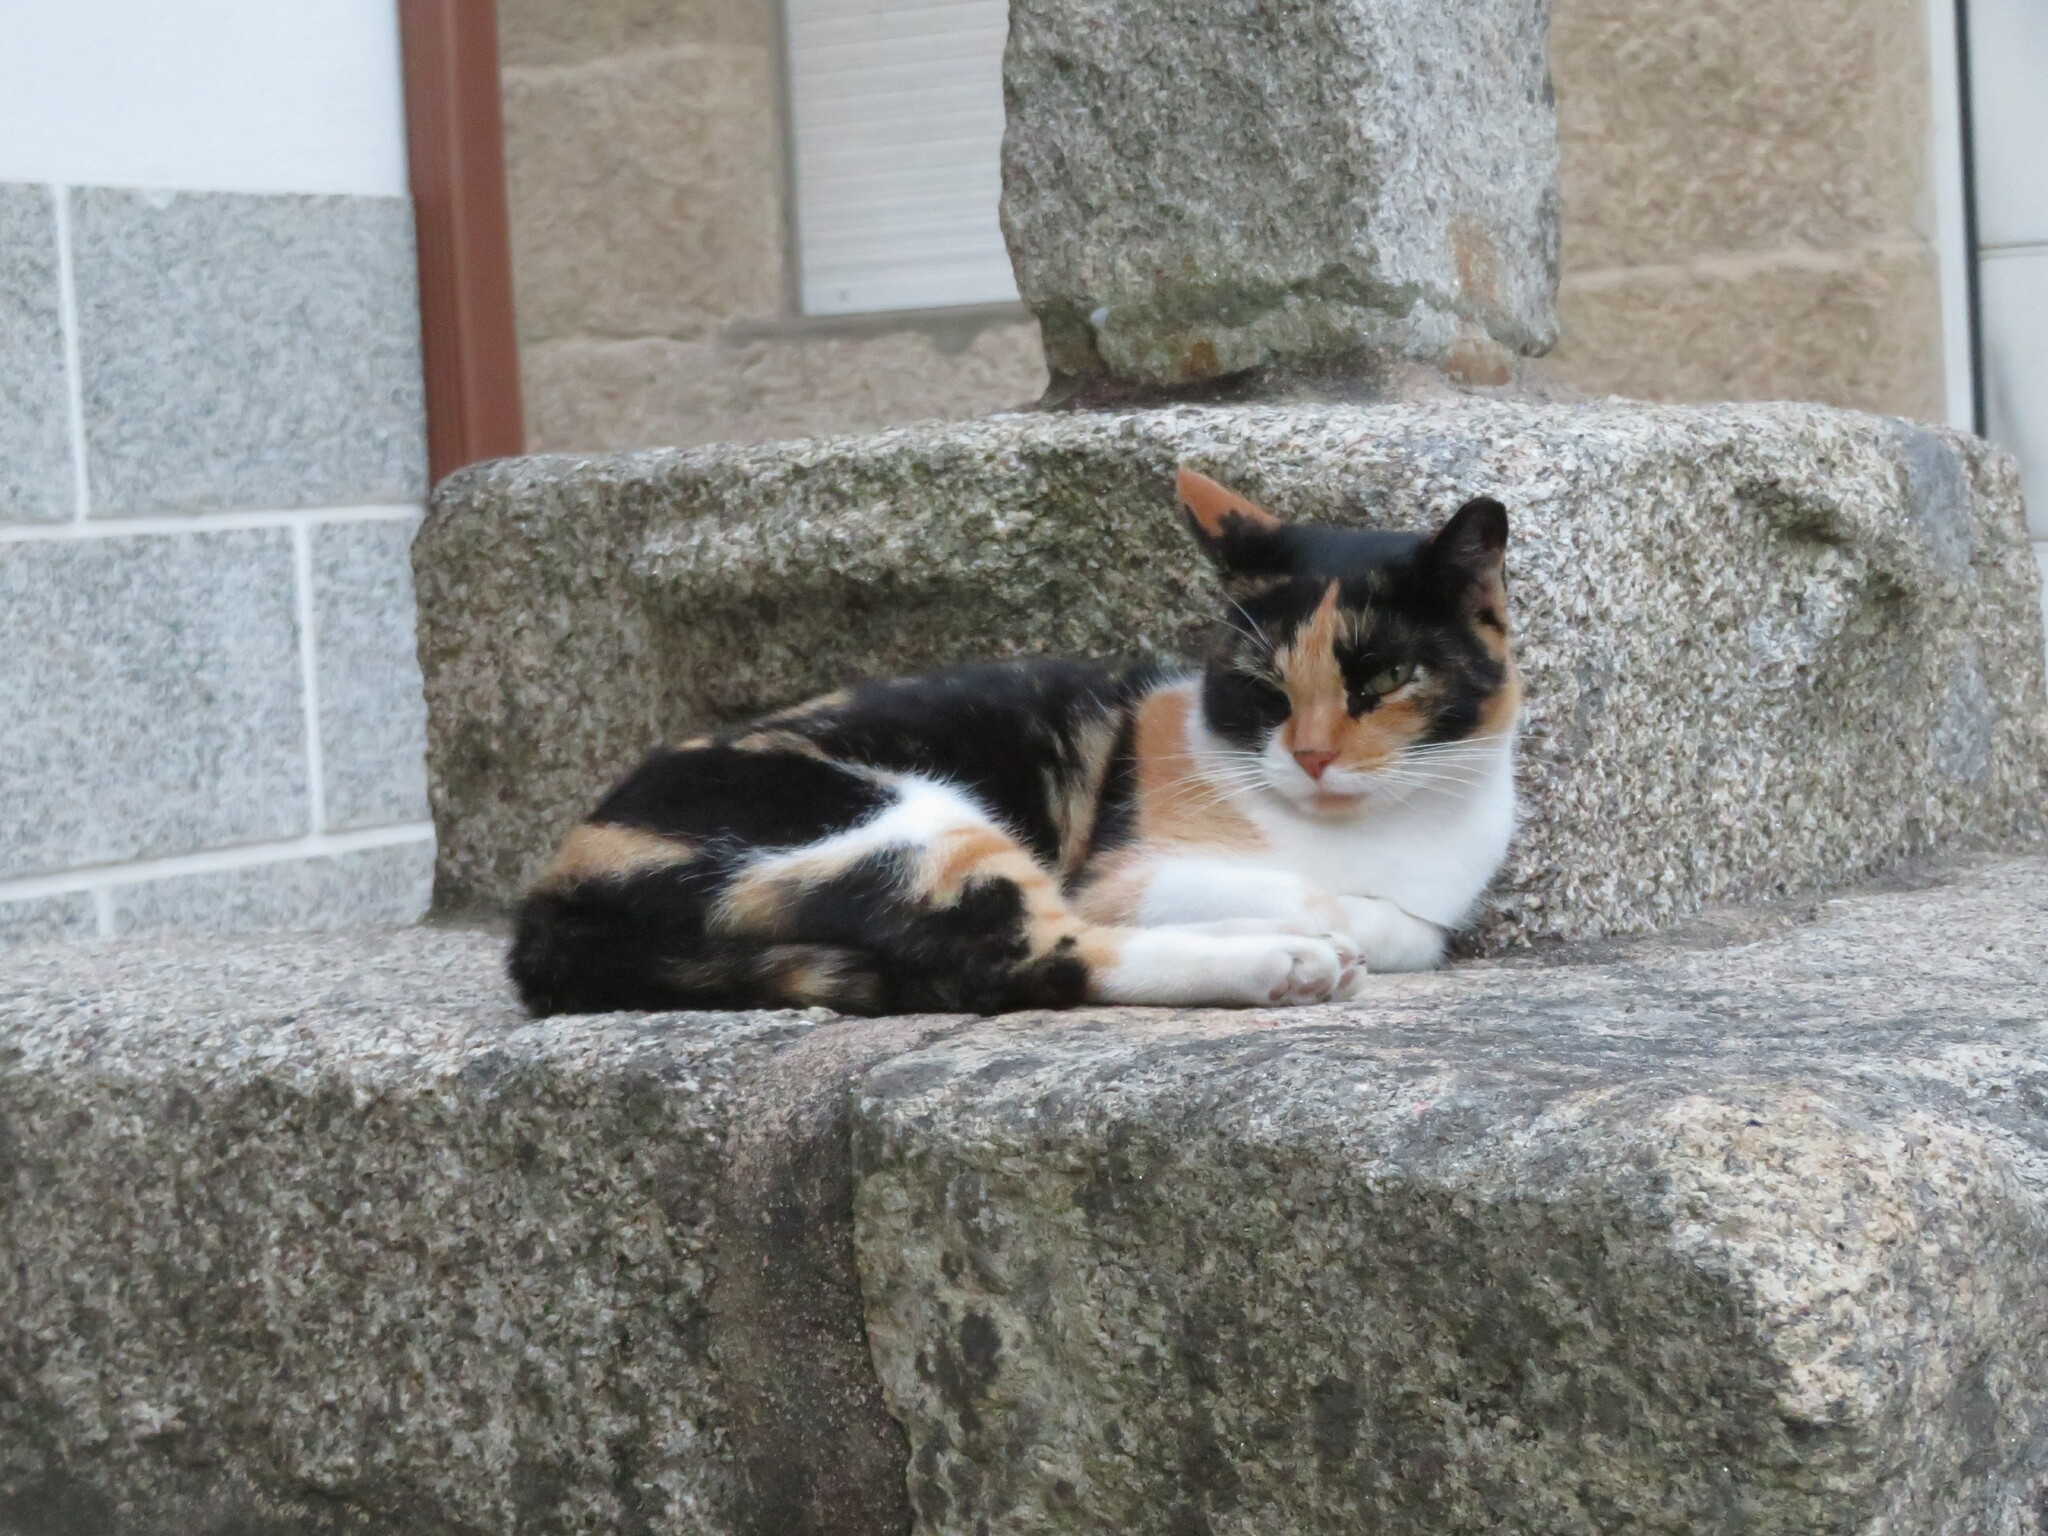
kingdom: Animalia
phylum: Chordata
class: Mammalia
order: Carnivora
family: Felidae
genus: Felis
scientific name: Felis catus
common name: Domestic cat
